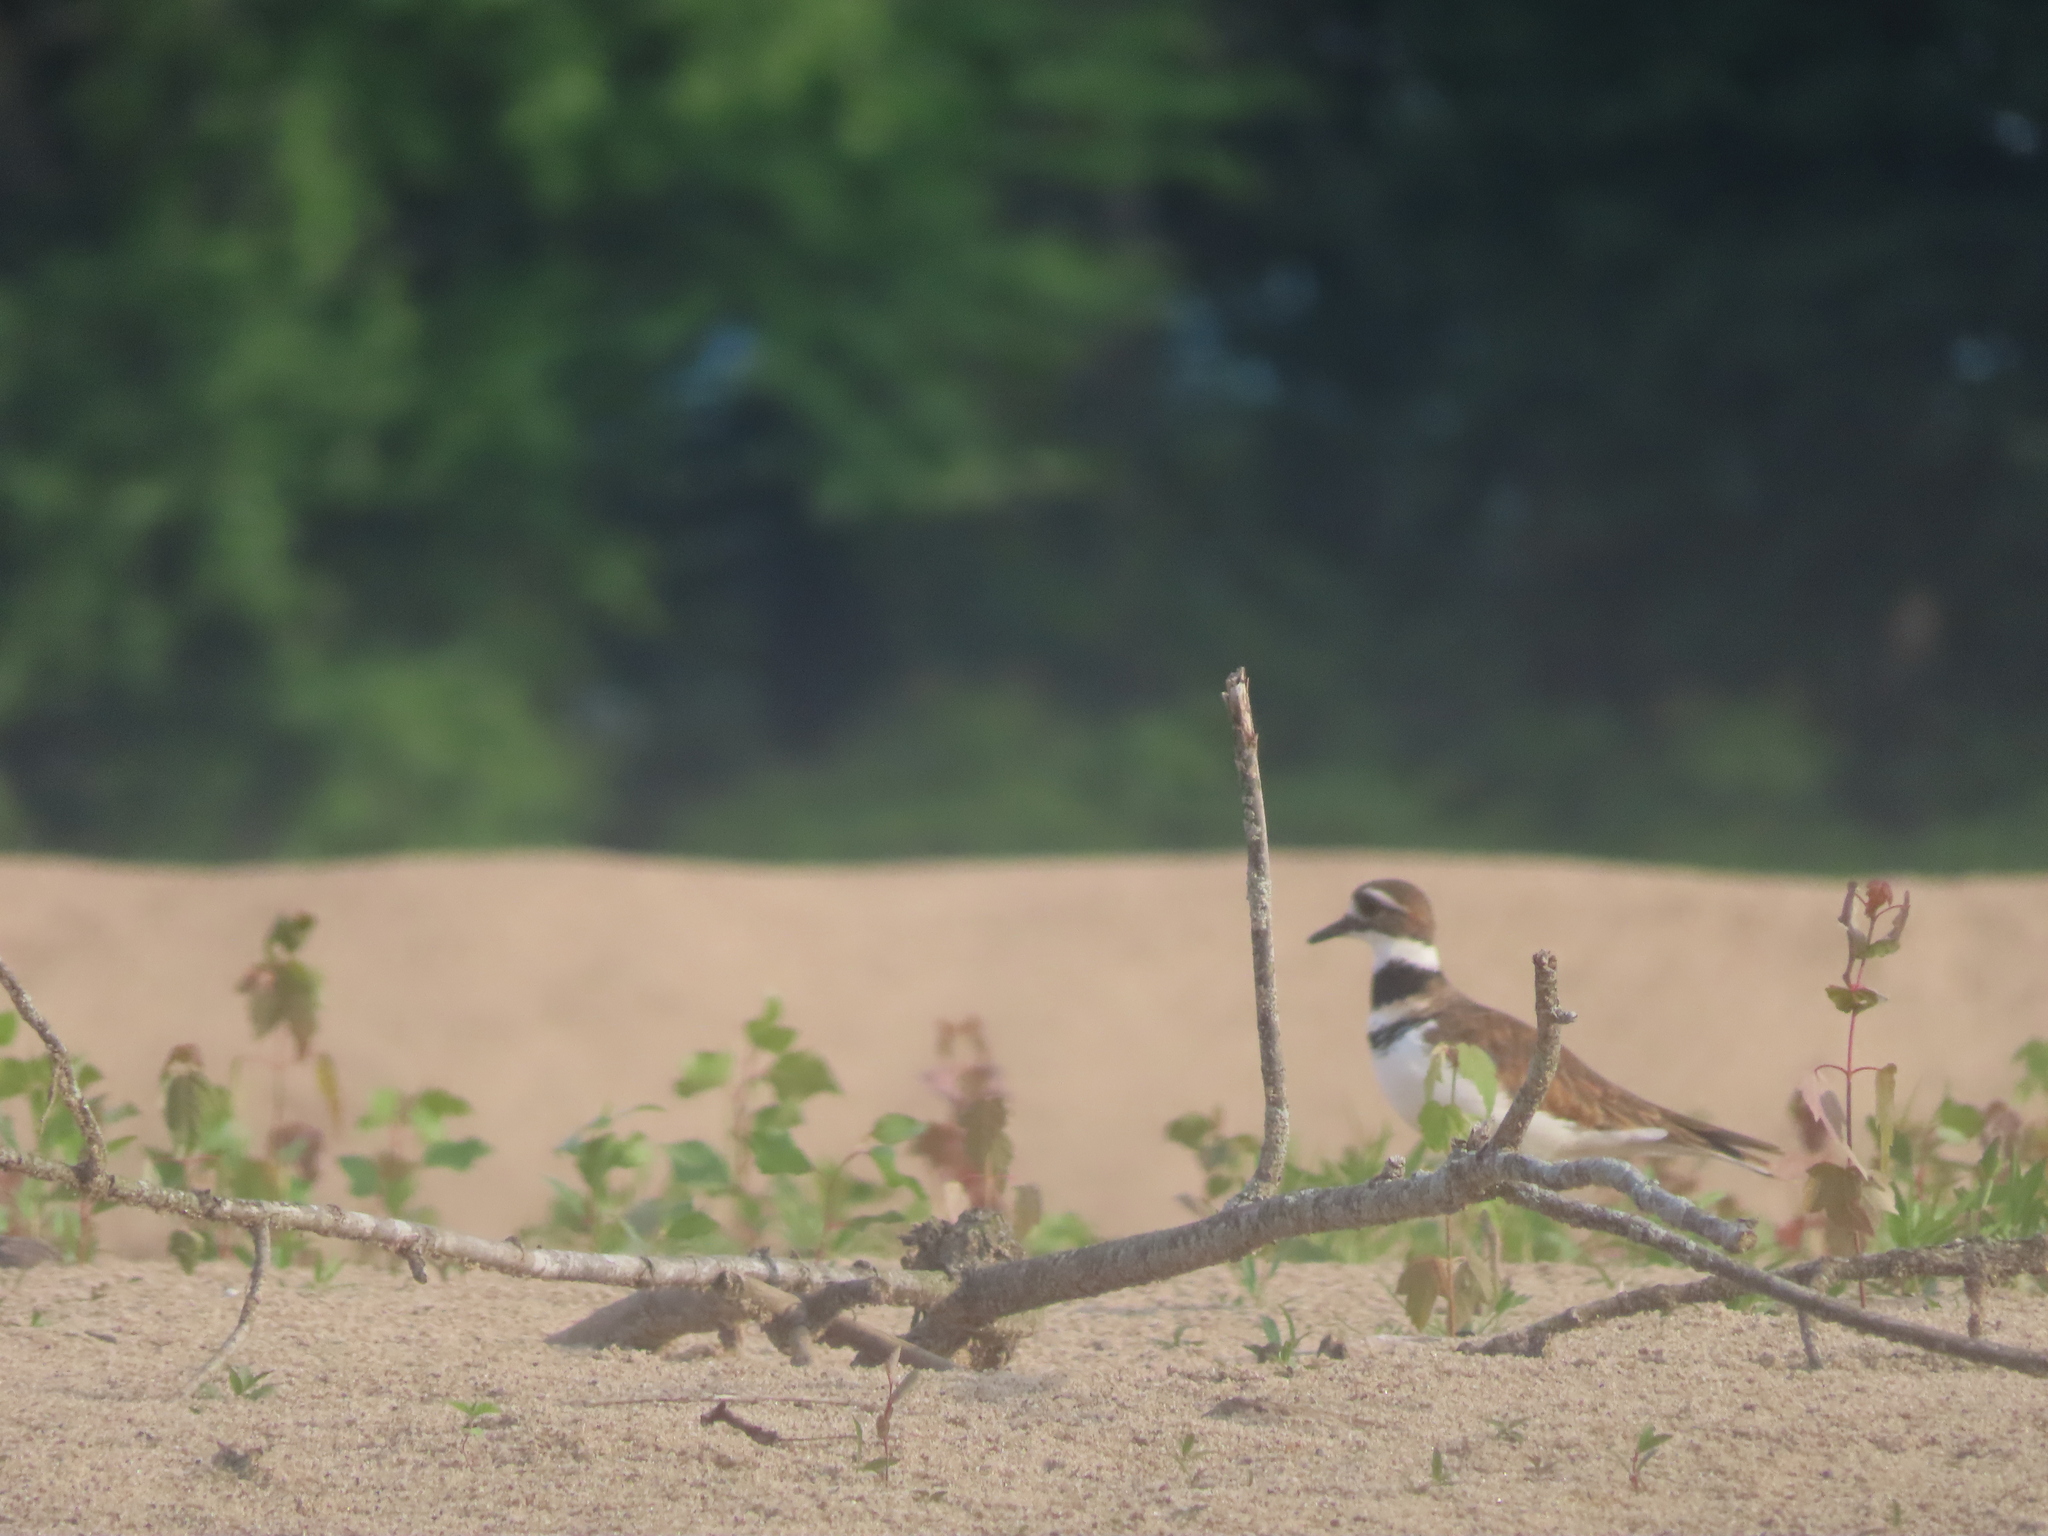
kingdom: Animalia
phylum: Chordata
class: Aves
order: Charadriiformes
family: Charadriidae
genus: Charadrius
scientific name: Charadrius vociferus
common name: Killdeer
